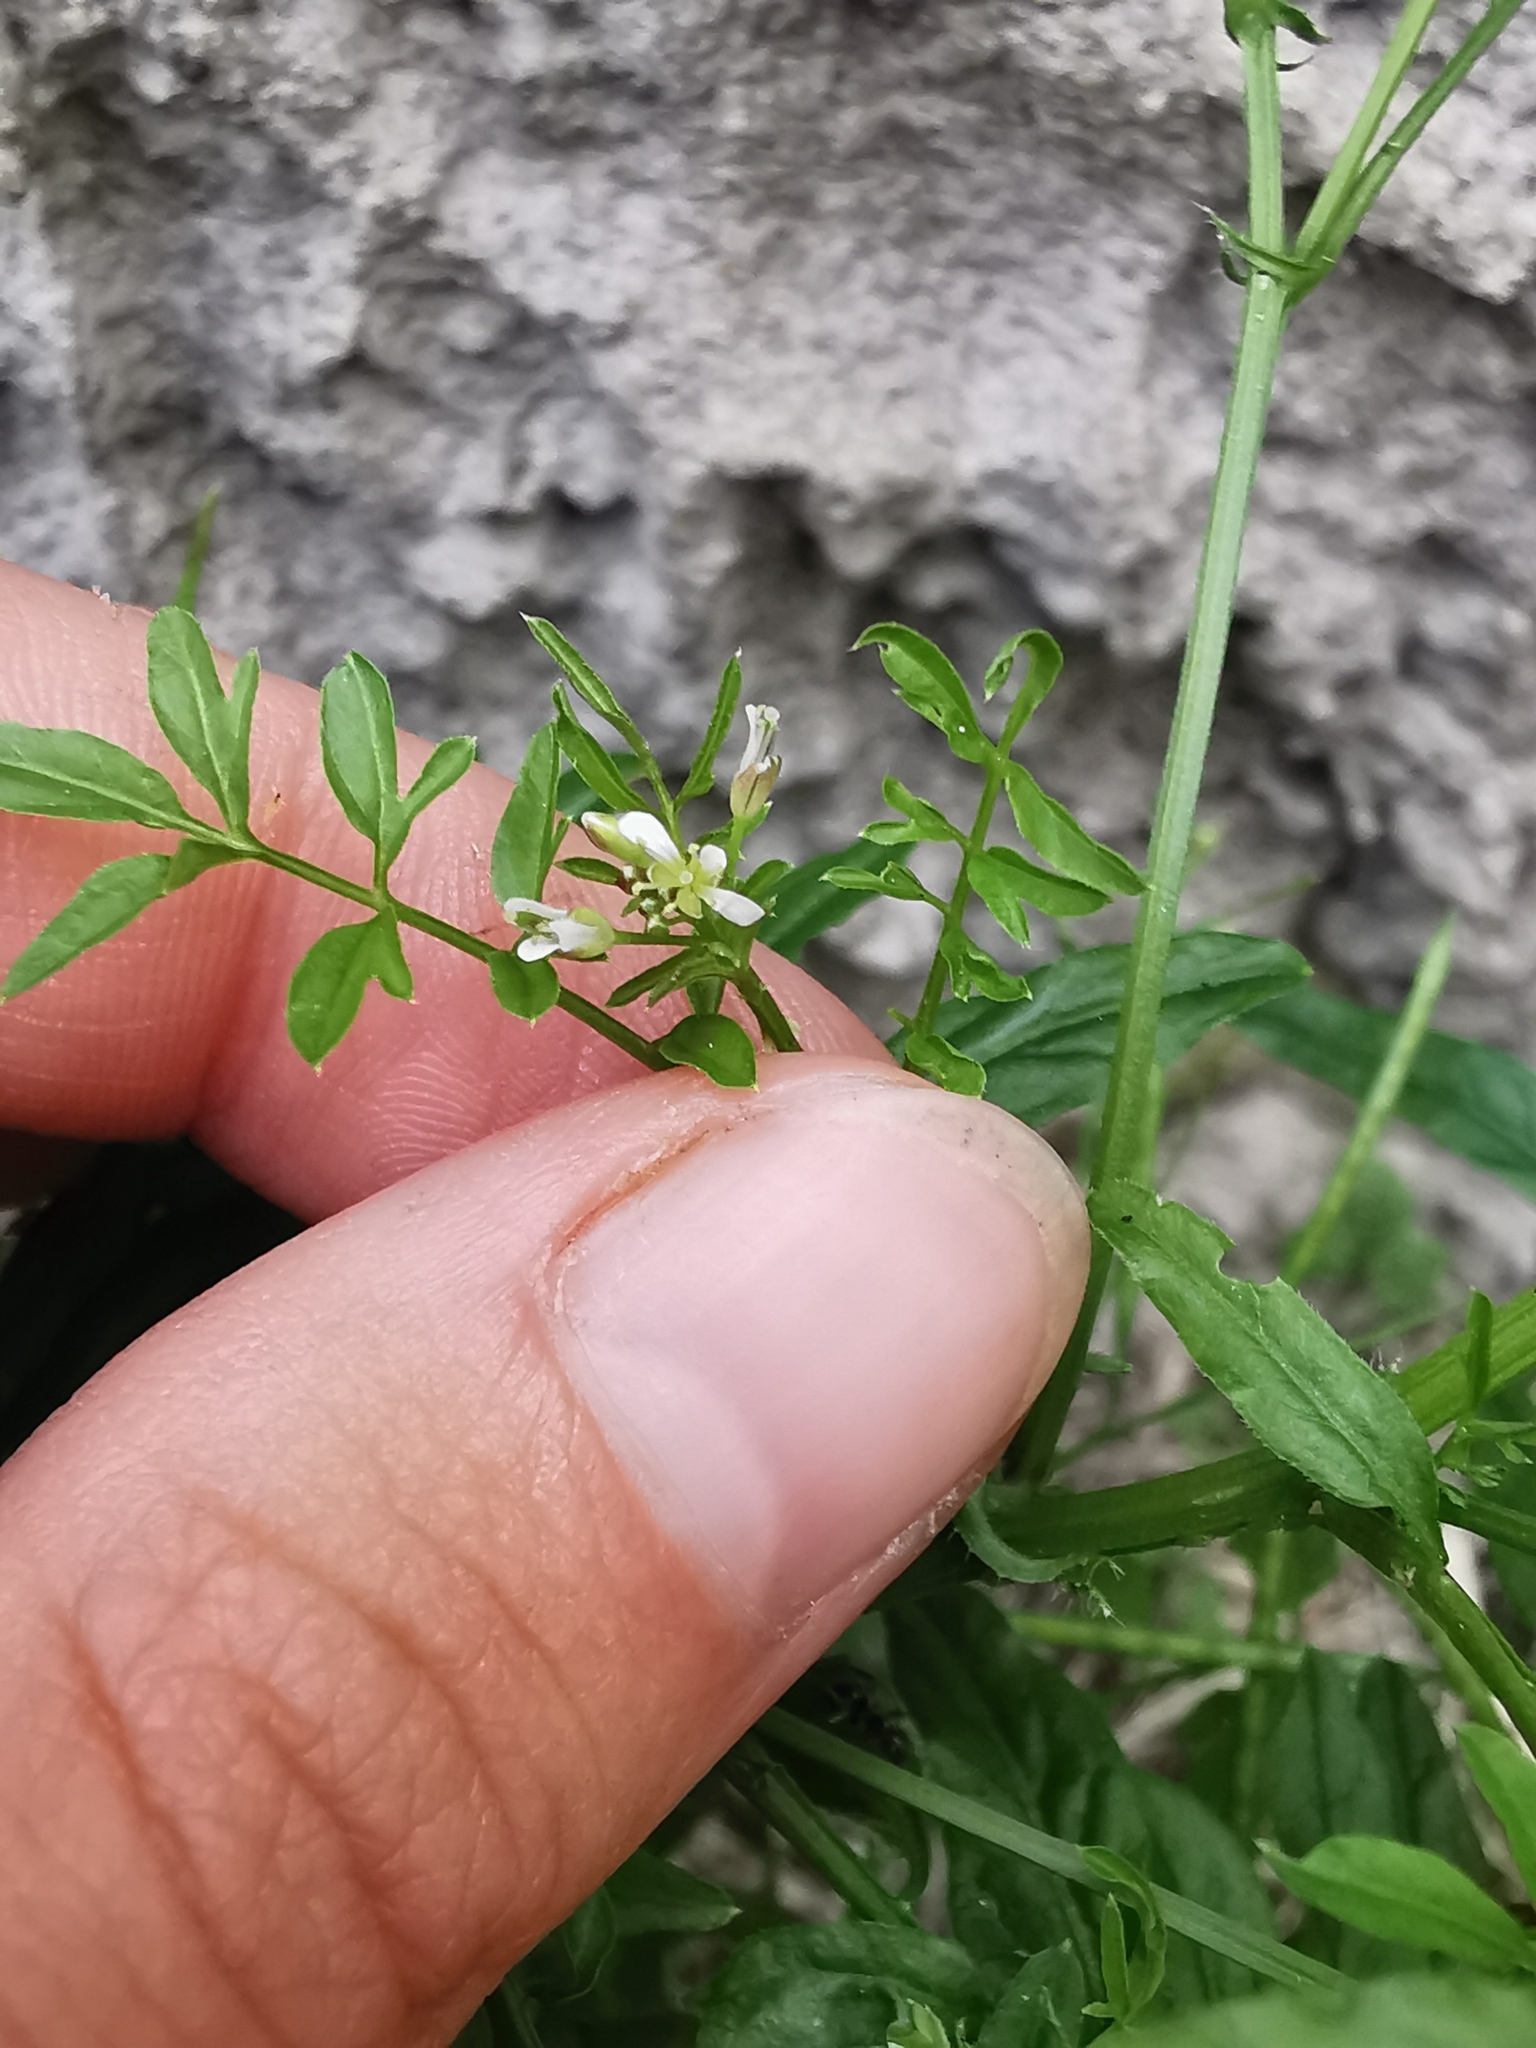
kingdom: Plantae
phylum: Tracheophyta
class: Magnoliopsida
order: Brassicales
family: Brassicaceae
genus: Cardamine
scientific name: Cardamine impatiens
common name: Narrow-leaved bitter-cress
